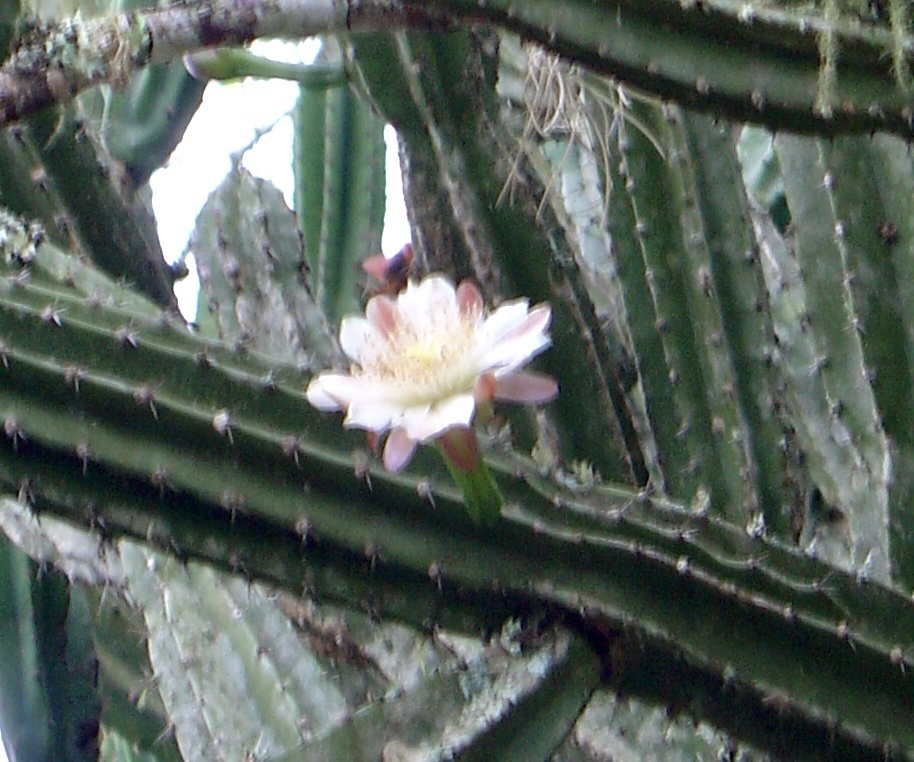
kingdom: Plantae
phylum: Tracheophyta
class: Magnoliopsida
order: Caryophyllales
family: Cactaceae
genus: Cereus
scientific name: Cereus hankeanus
